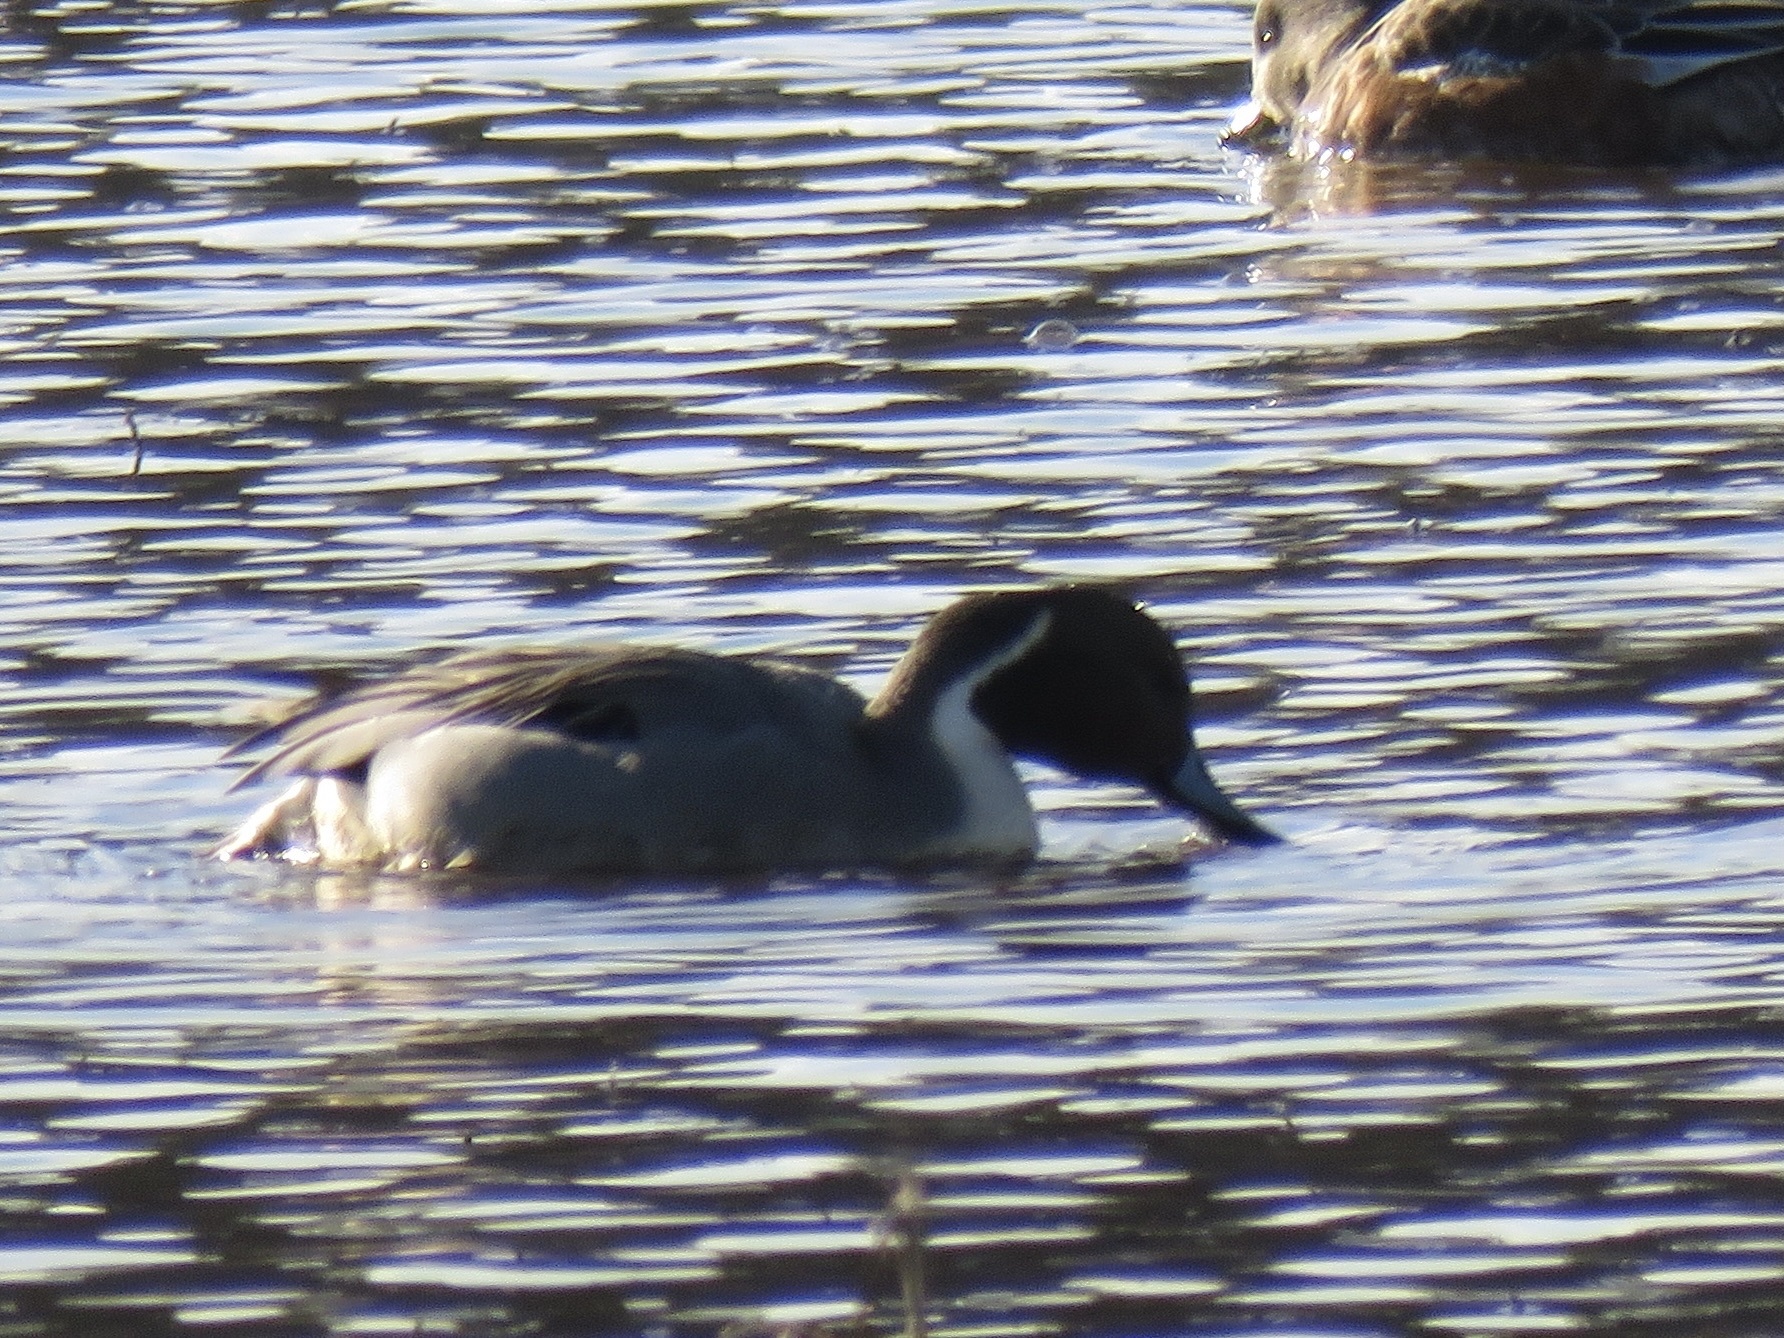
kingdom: Animalia
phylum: Chordata
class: Aves
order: Anseriformes
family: Anatidae
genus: Anas
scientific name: Anas acuta
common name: Northern pintail
